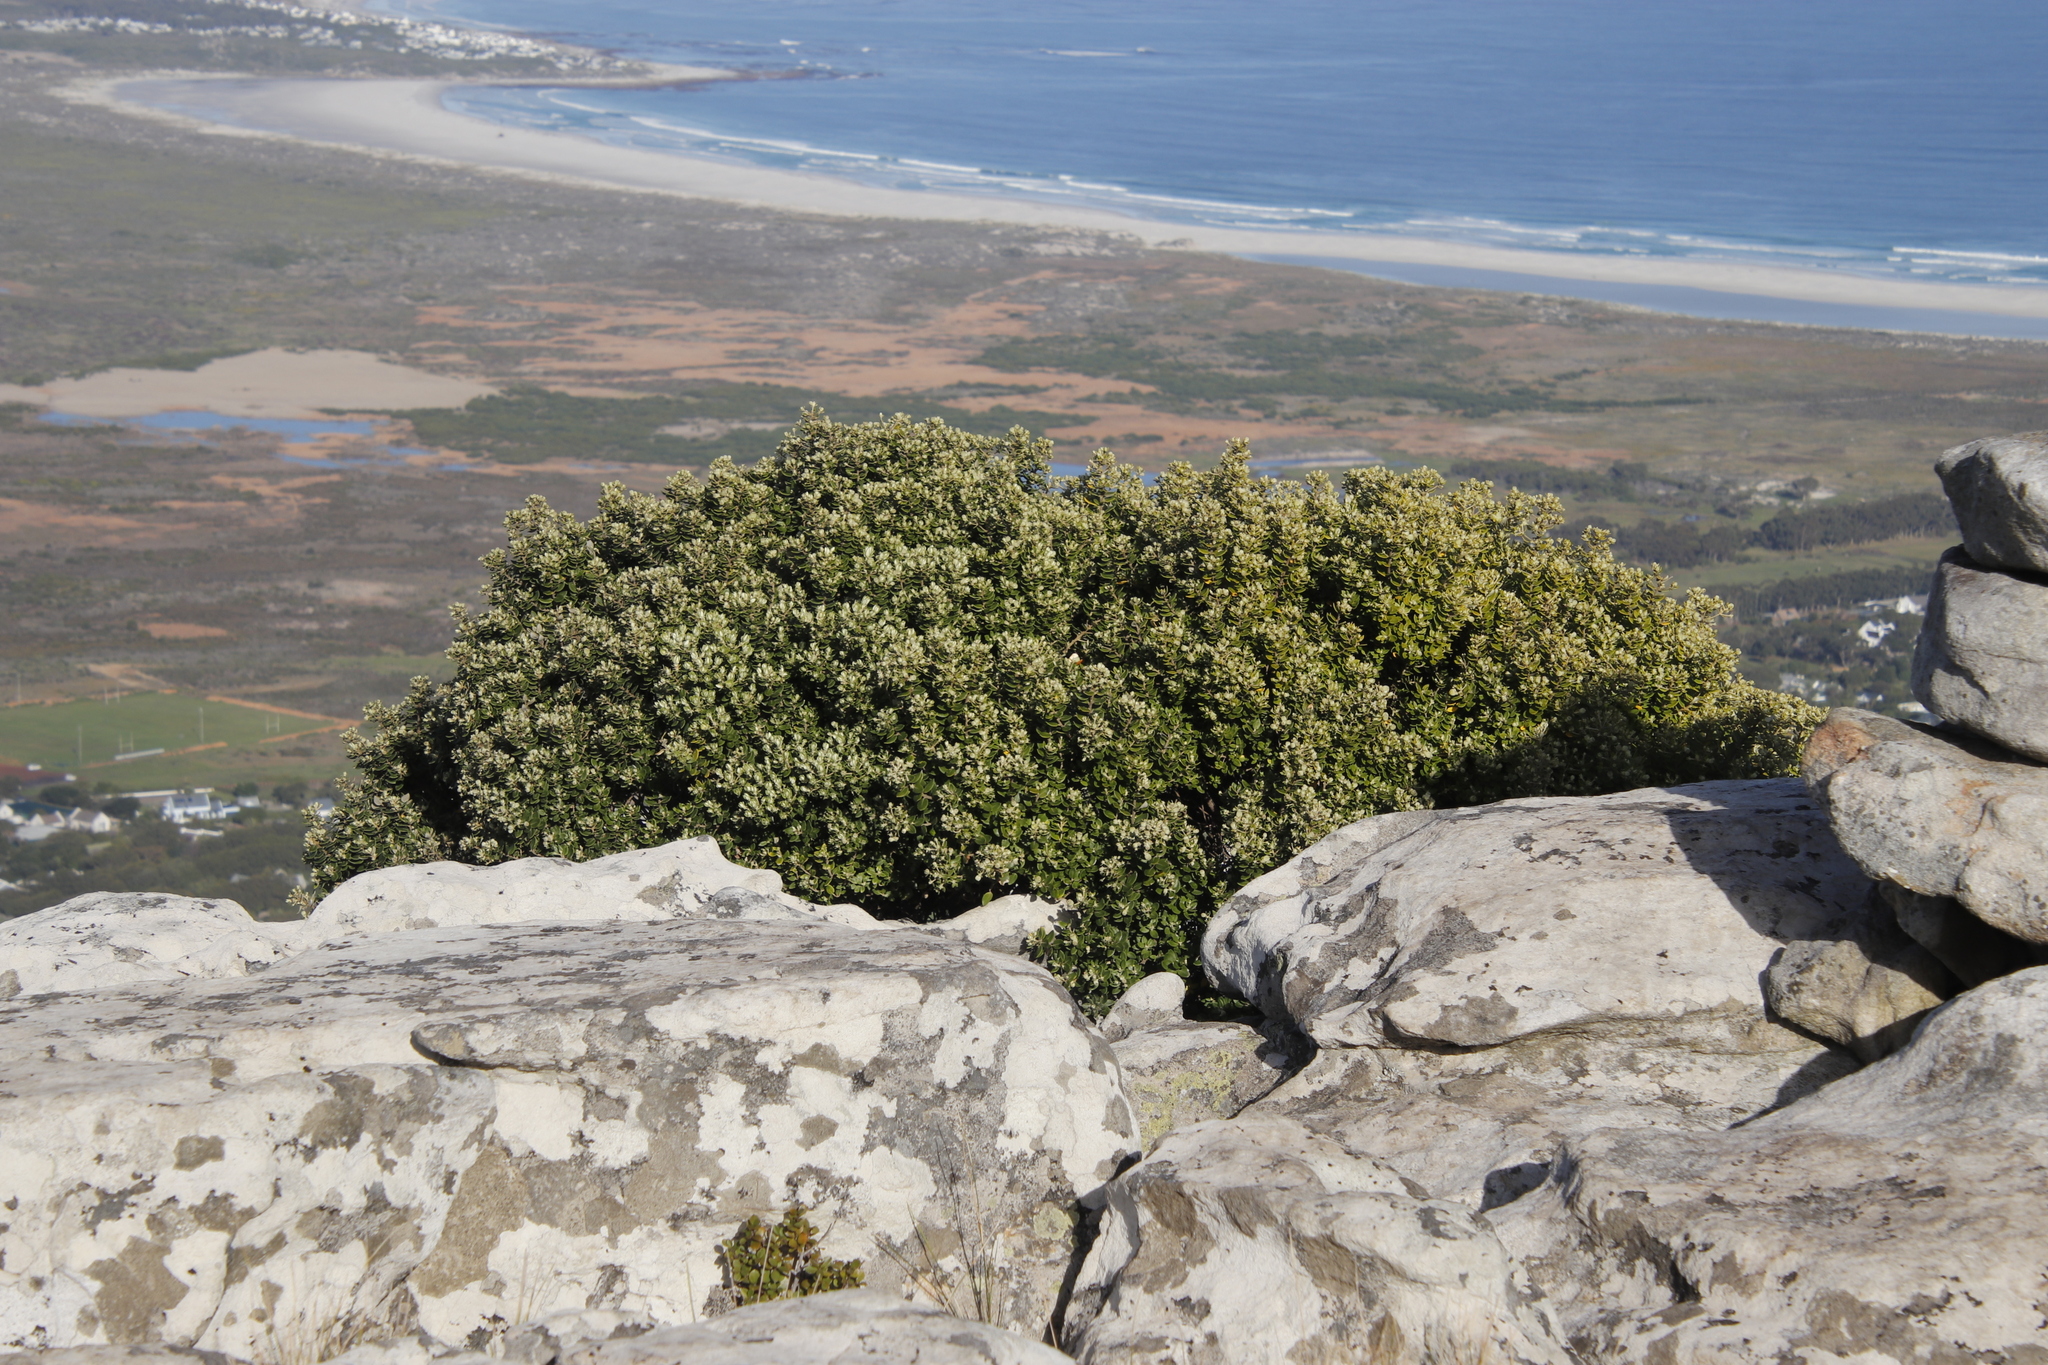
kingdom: Plantae
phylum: Tracheophyta
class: Magnoliopsida
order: Rosales
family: Rhamnaceae
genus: Phylica
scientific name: Phylica buxifolia
